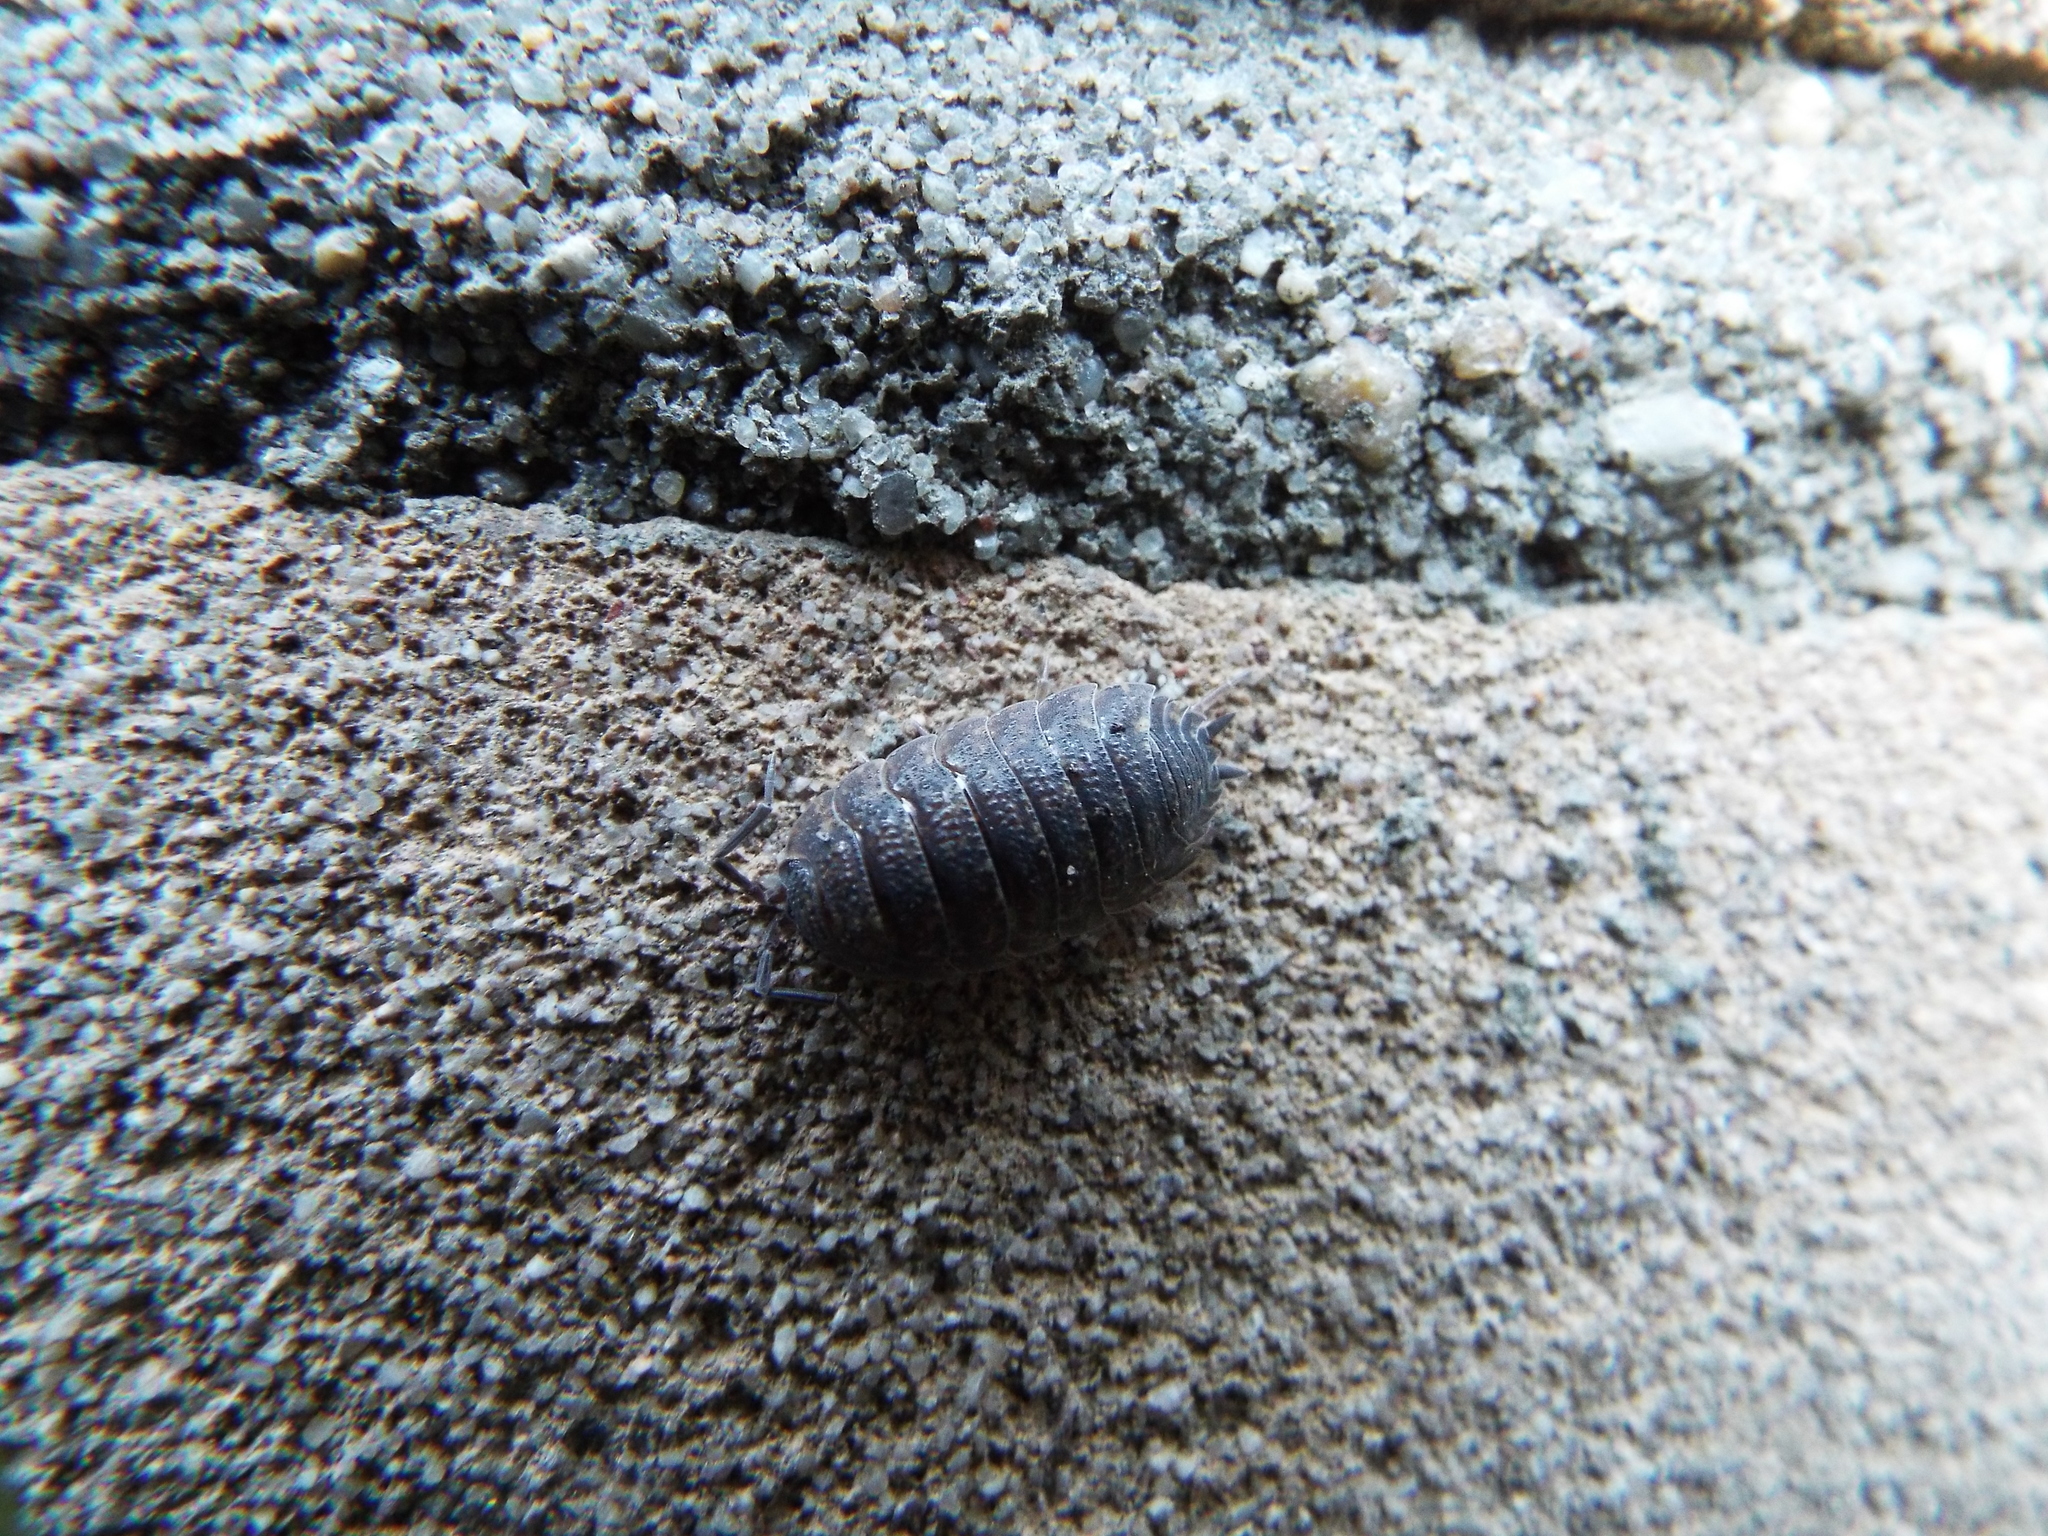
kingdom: Animalia
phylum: Arthropoda
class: Malacostraca
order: Isopoda
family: Porcellionidae
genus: Porcellio
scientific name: Porcellio scaber
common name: Common rough woodlouse
